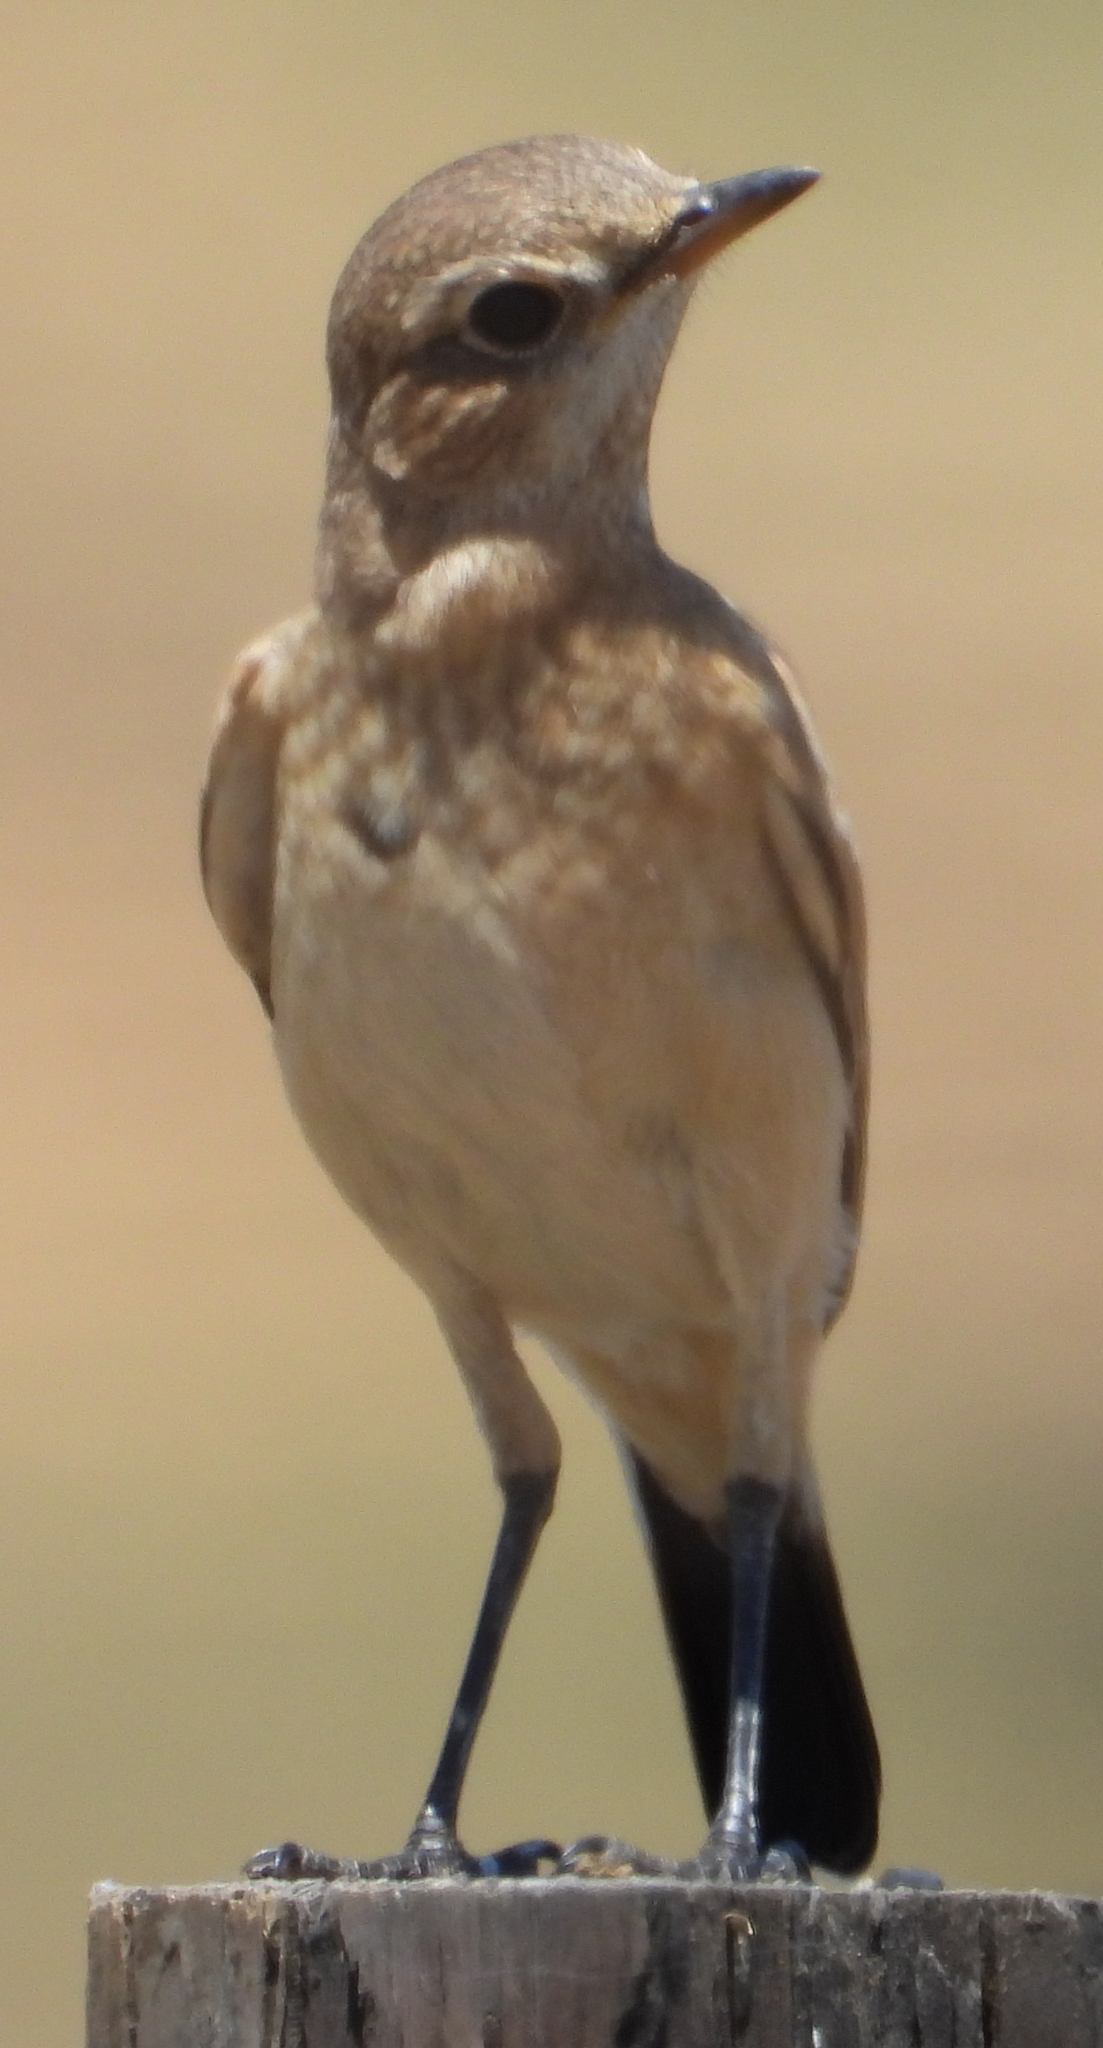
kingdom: Animalia
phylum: Chordata
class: Aves
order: Passeriformes
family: Muscicapidae
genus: Oenanthe
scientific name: Oenanthe pileata
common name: Capped wheatear
